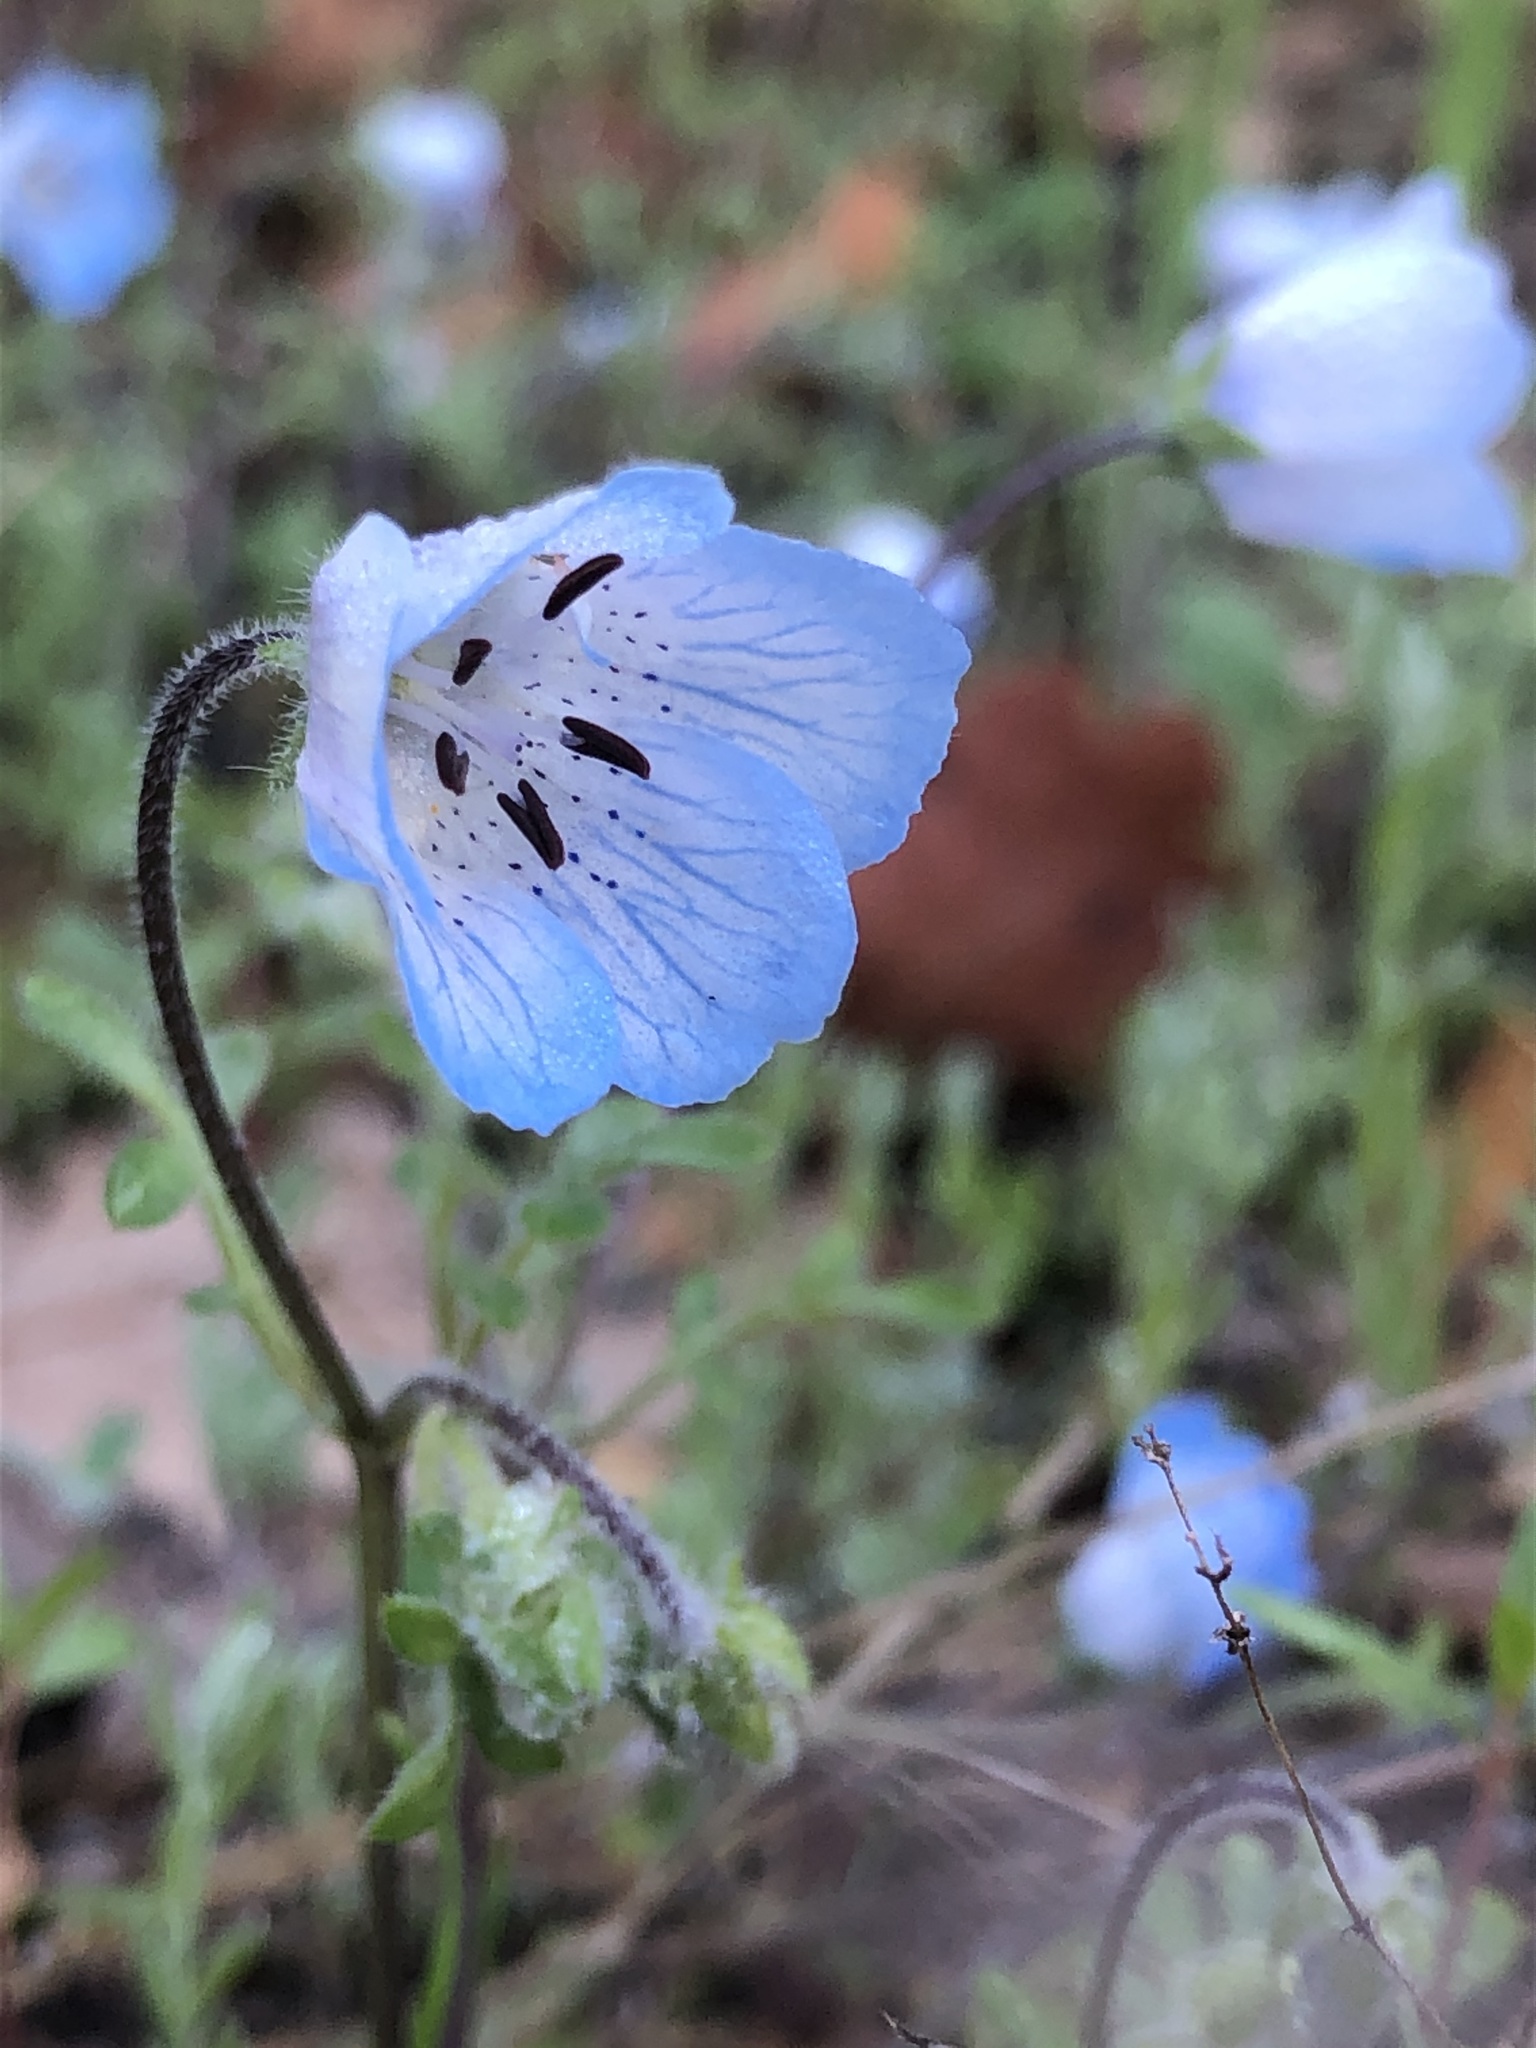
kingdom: Plantae
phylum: Tracheophyta
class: Magnoliopsida
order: Boraginales
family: Hydrophyllaceae
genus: Nemophila
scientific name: Nemophila menziesii
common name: Baby's-blue-eyes
